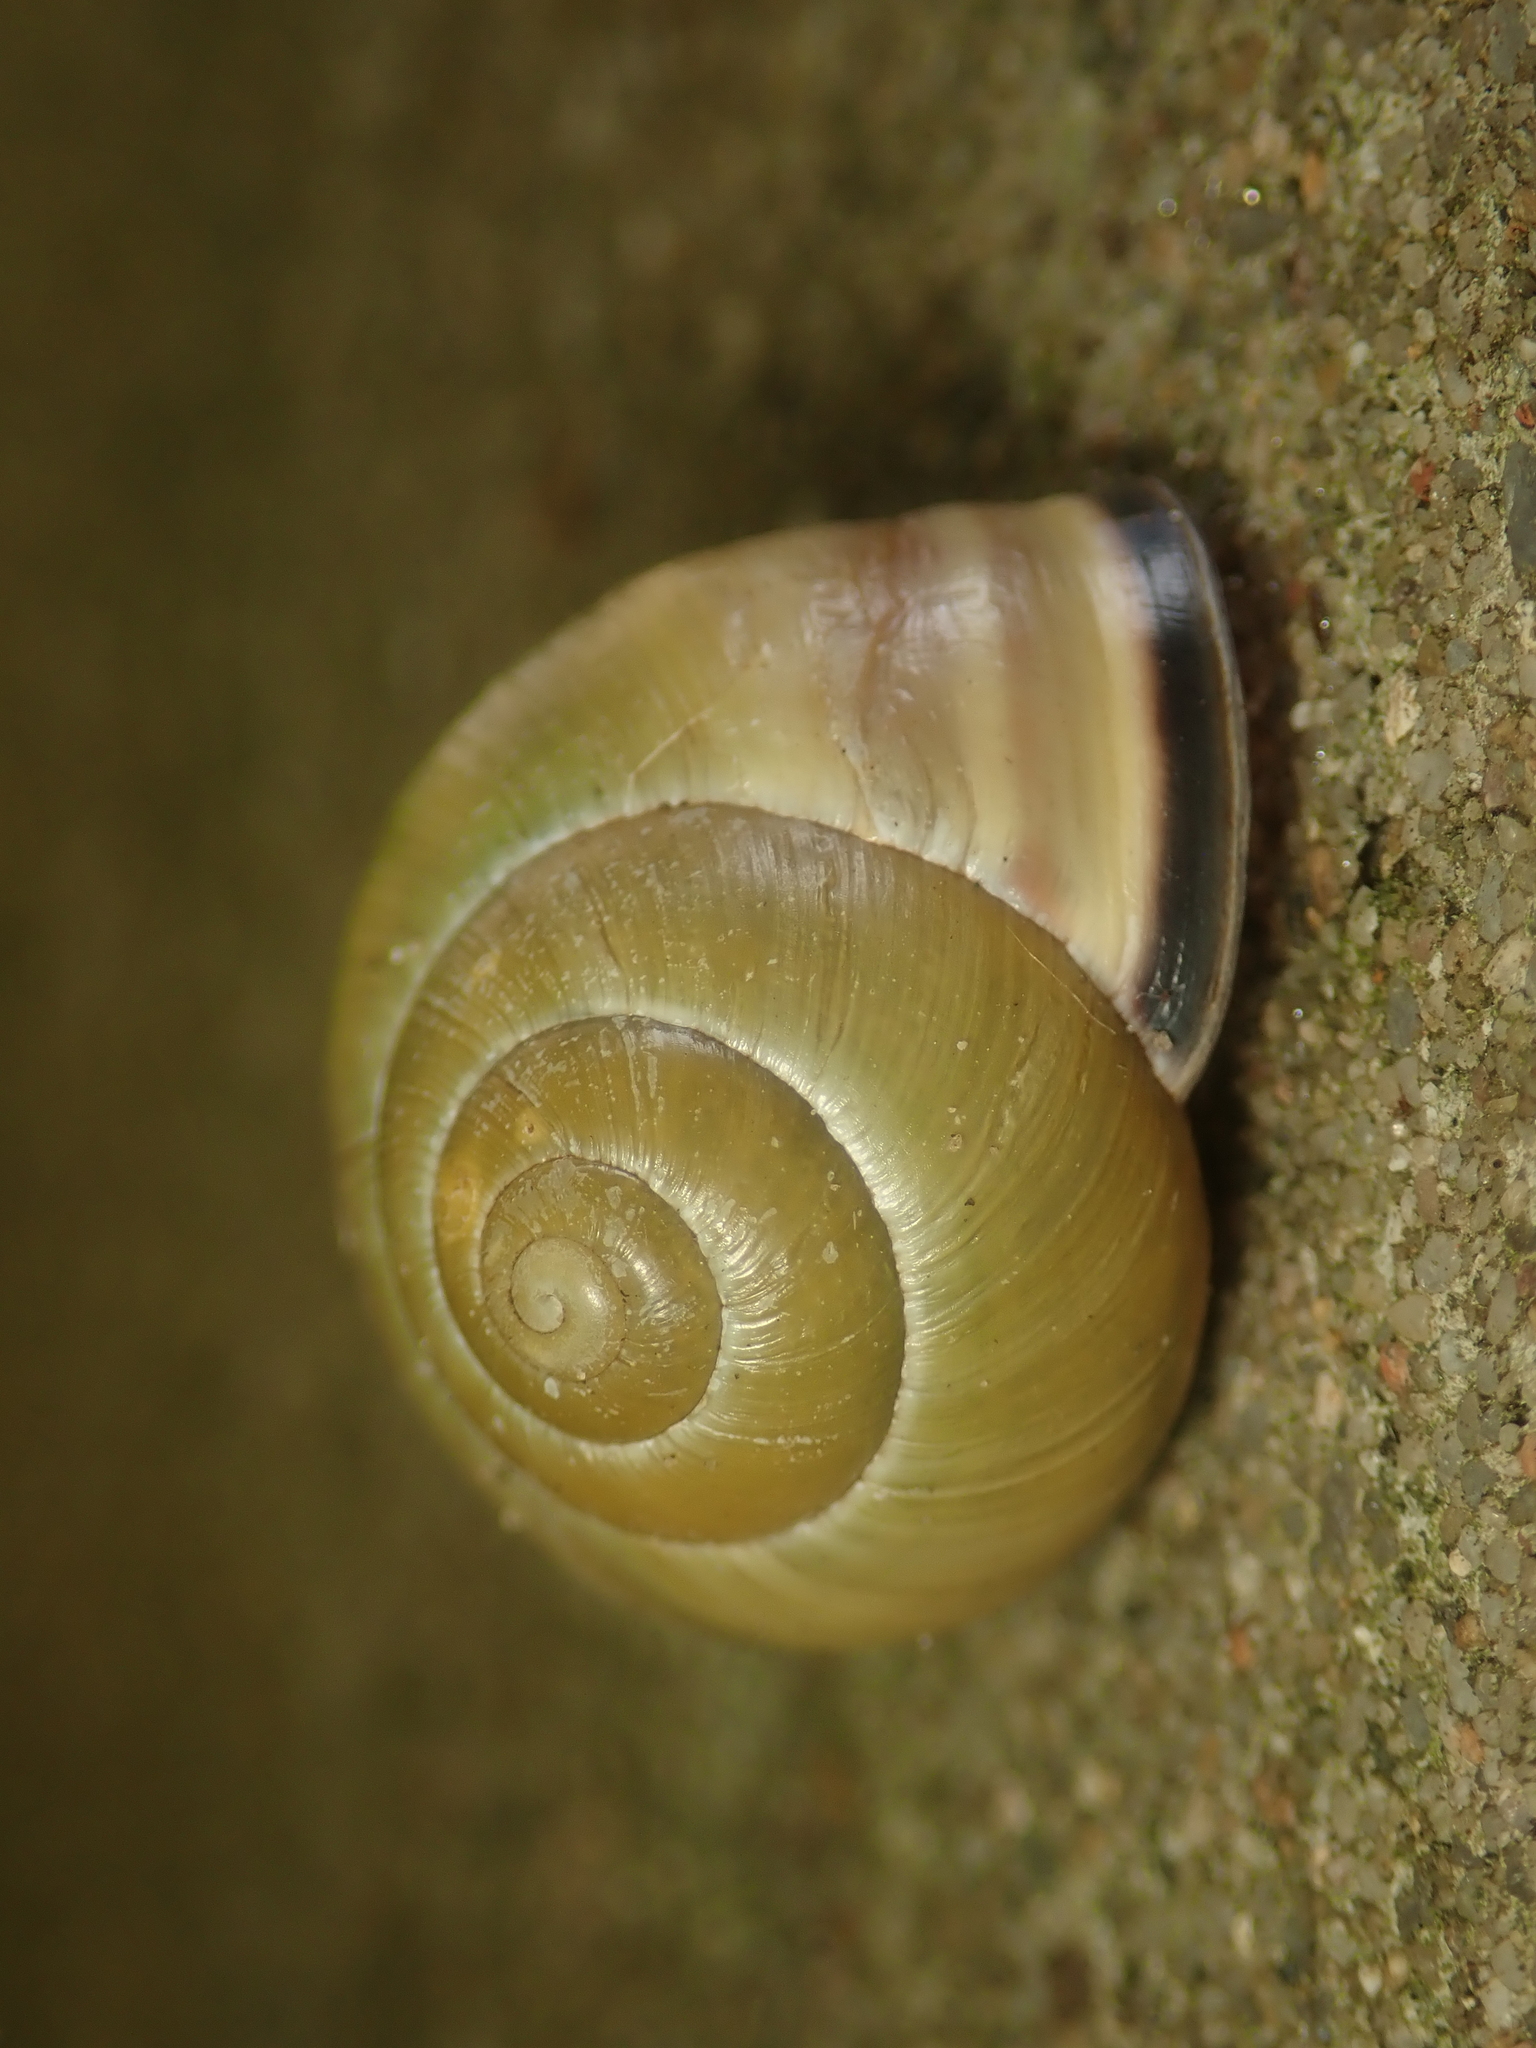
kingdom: Animalia
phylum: Mollusca
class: Gastropoda
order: Stylommatophora
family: Helicidae
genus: Cepaea
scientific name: Cepaea nemoralis
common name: Grovesnail
